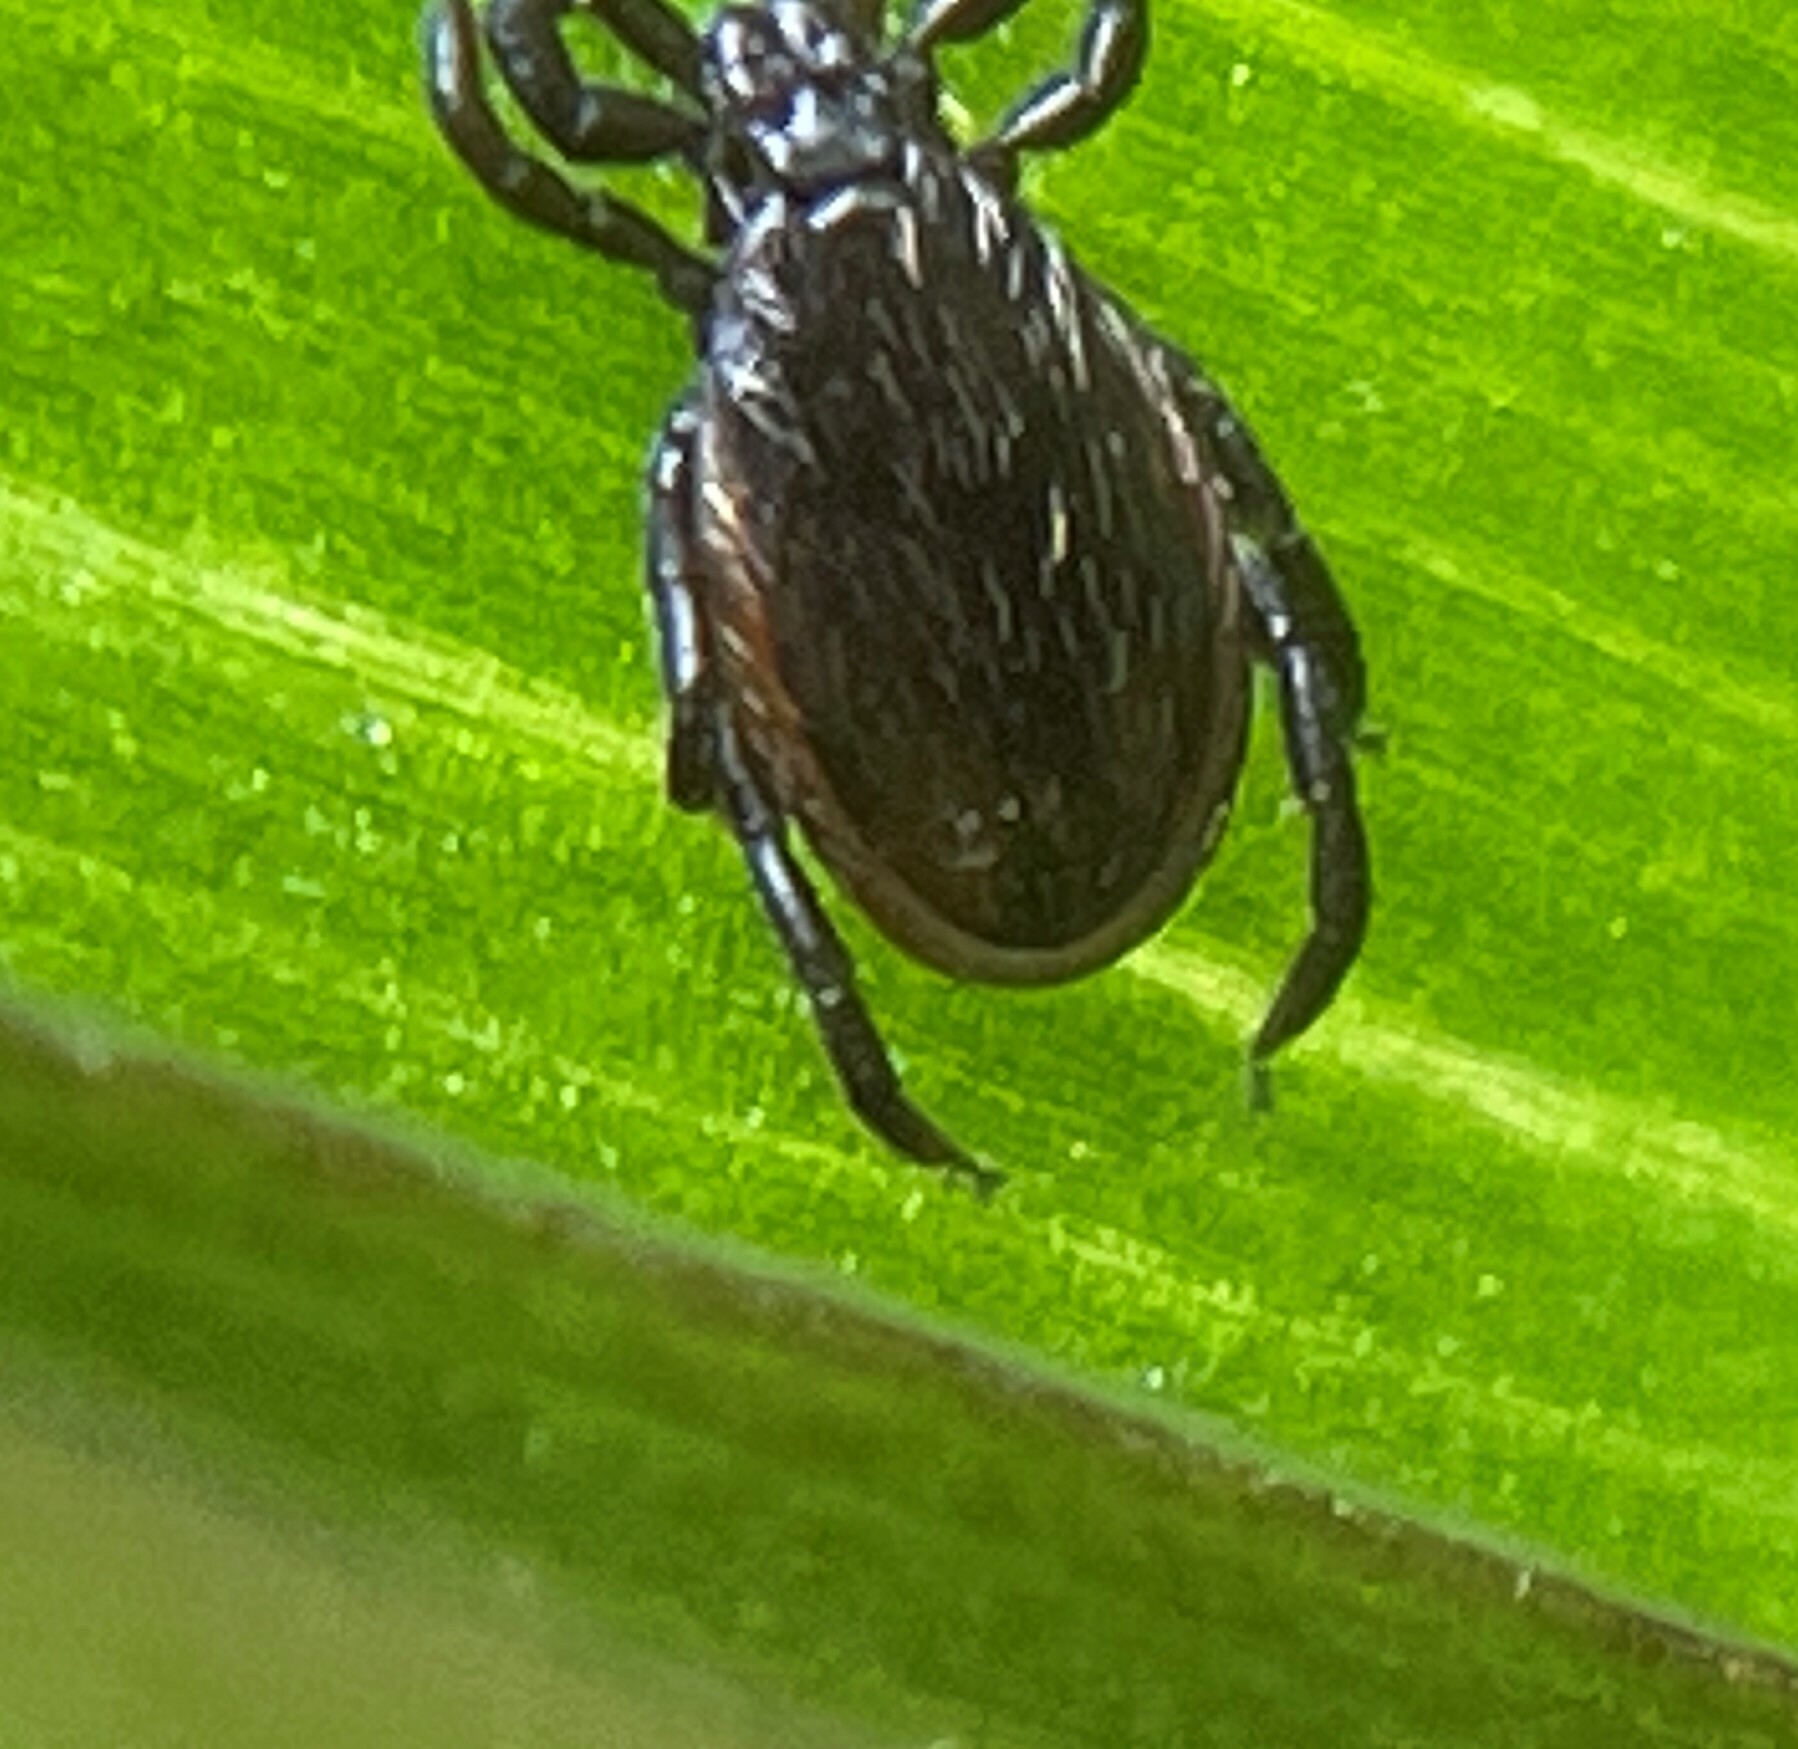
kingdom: Animalia
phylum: Arthropoda
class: Arachnida
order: Ixodida
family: Ixodidae
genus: Ixodes
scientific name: Ixodes pacificus
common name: California black-legged tick
